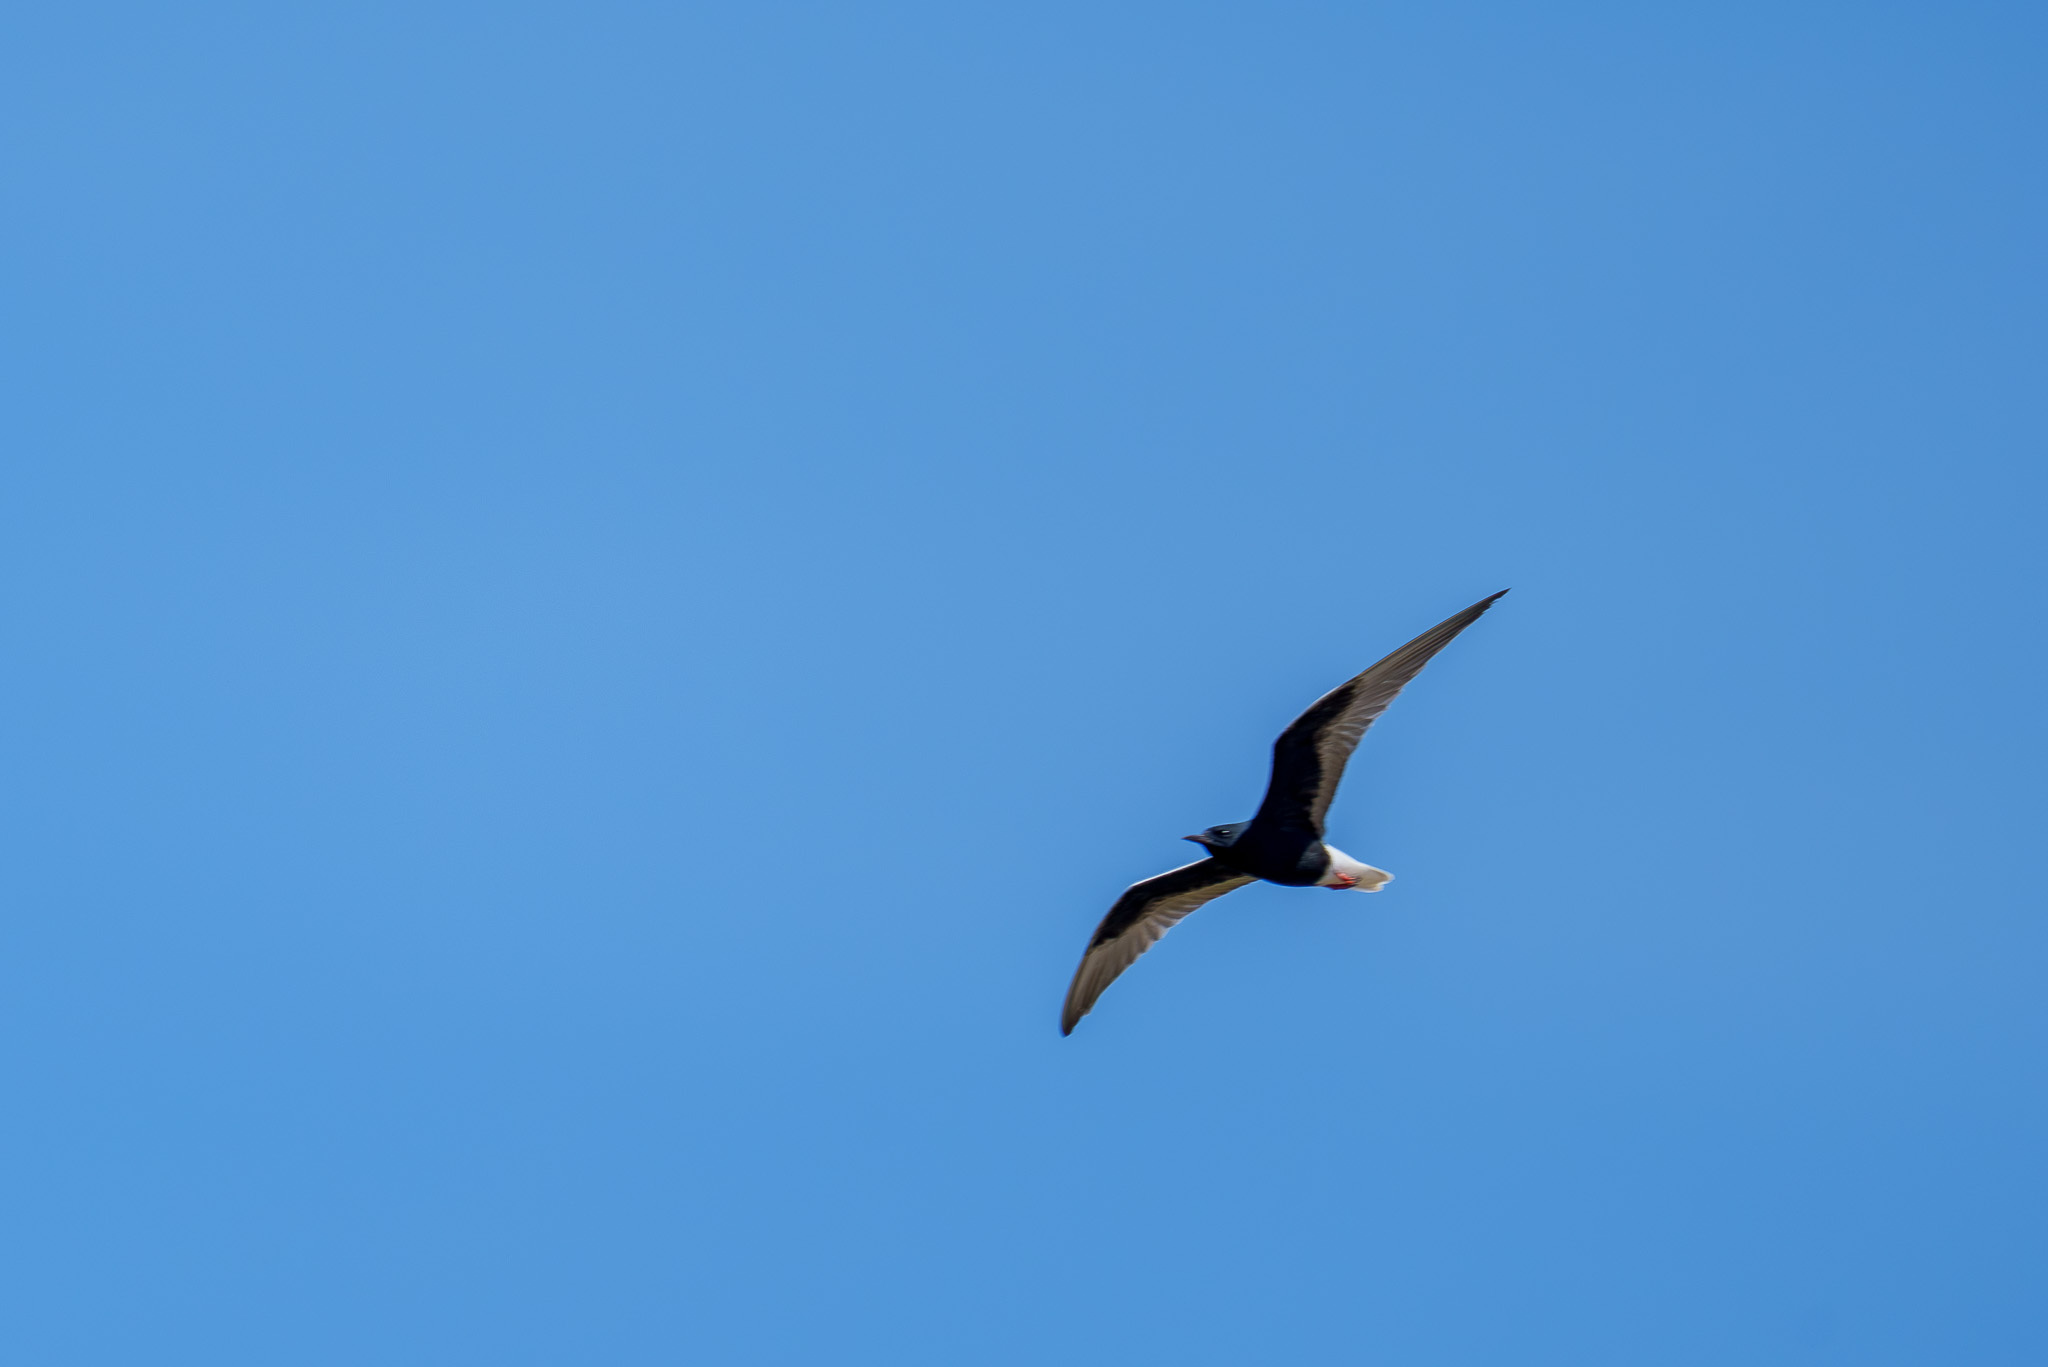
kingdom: Animalia
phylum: Chordata
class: Aves
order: Charadriiformes
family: Laridae
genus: Chlidonias
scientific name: Chlidonias leucopterus
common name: White-winged tern
